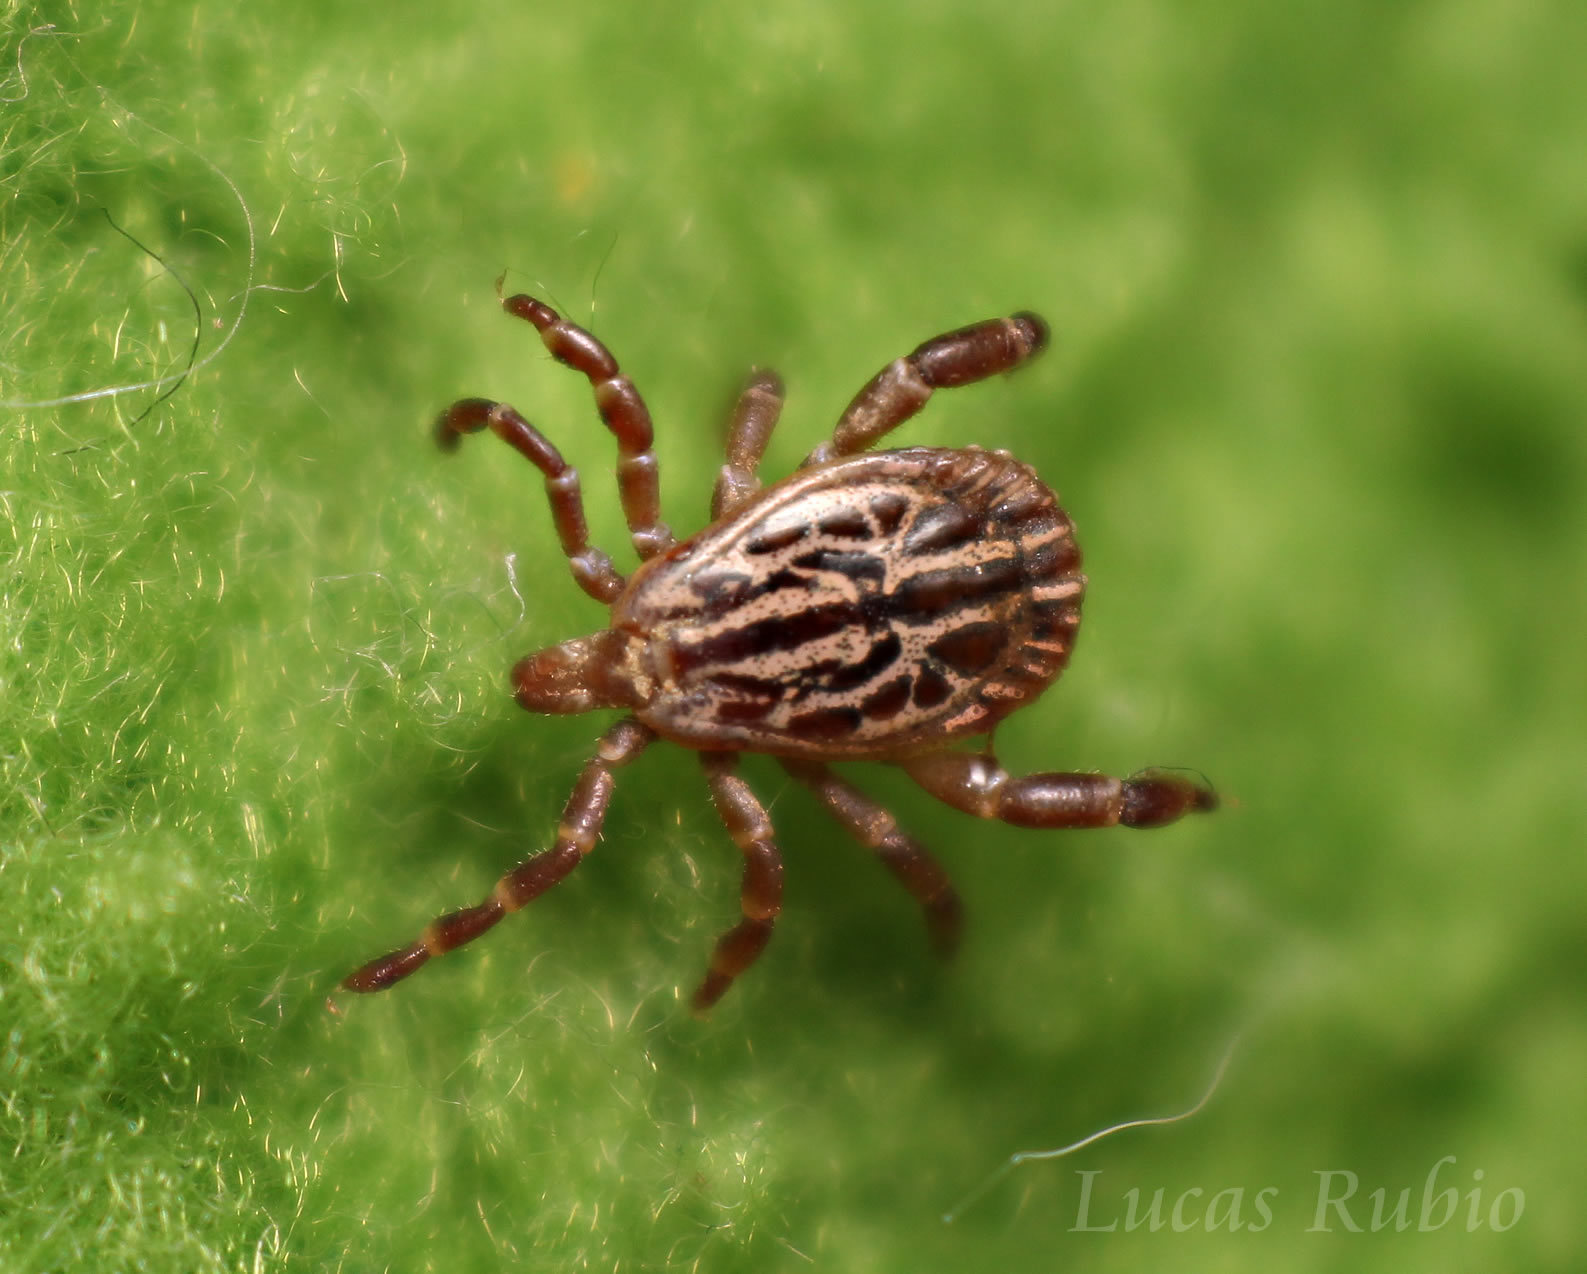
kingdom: Animalia
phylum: Arthropoda
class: Arachnida
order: Ixodida
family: Ixodidae
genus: Amblyomma
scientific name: Amblyomma triste
